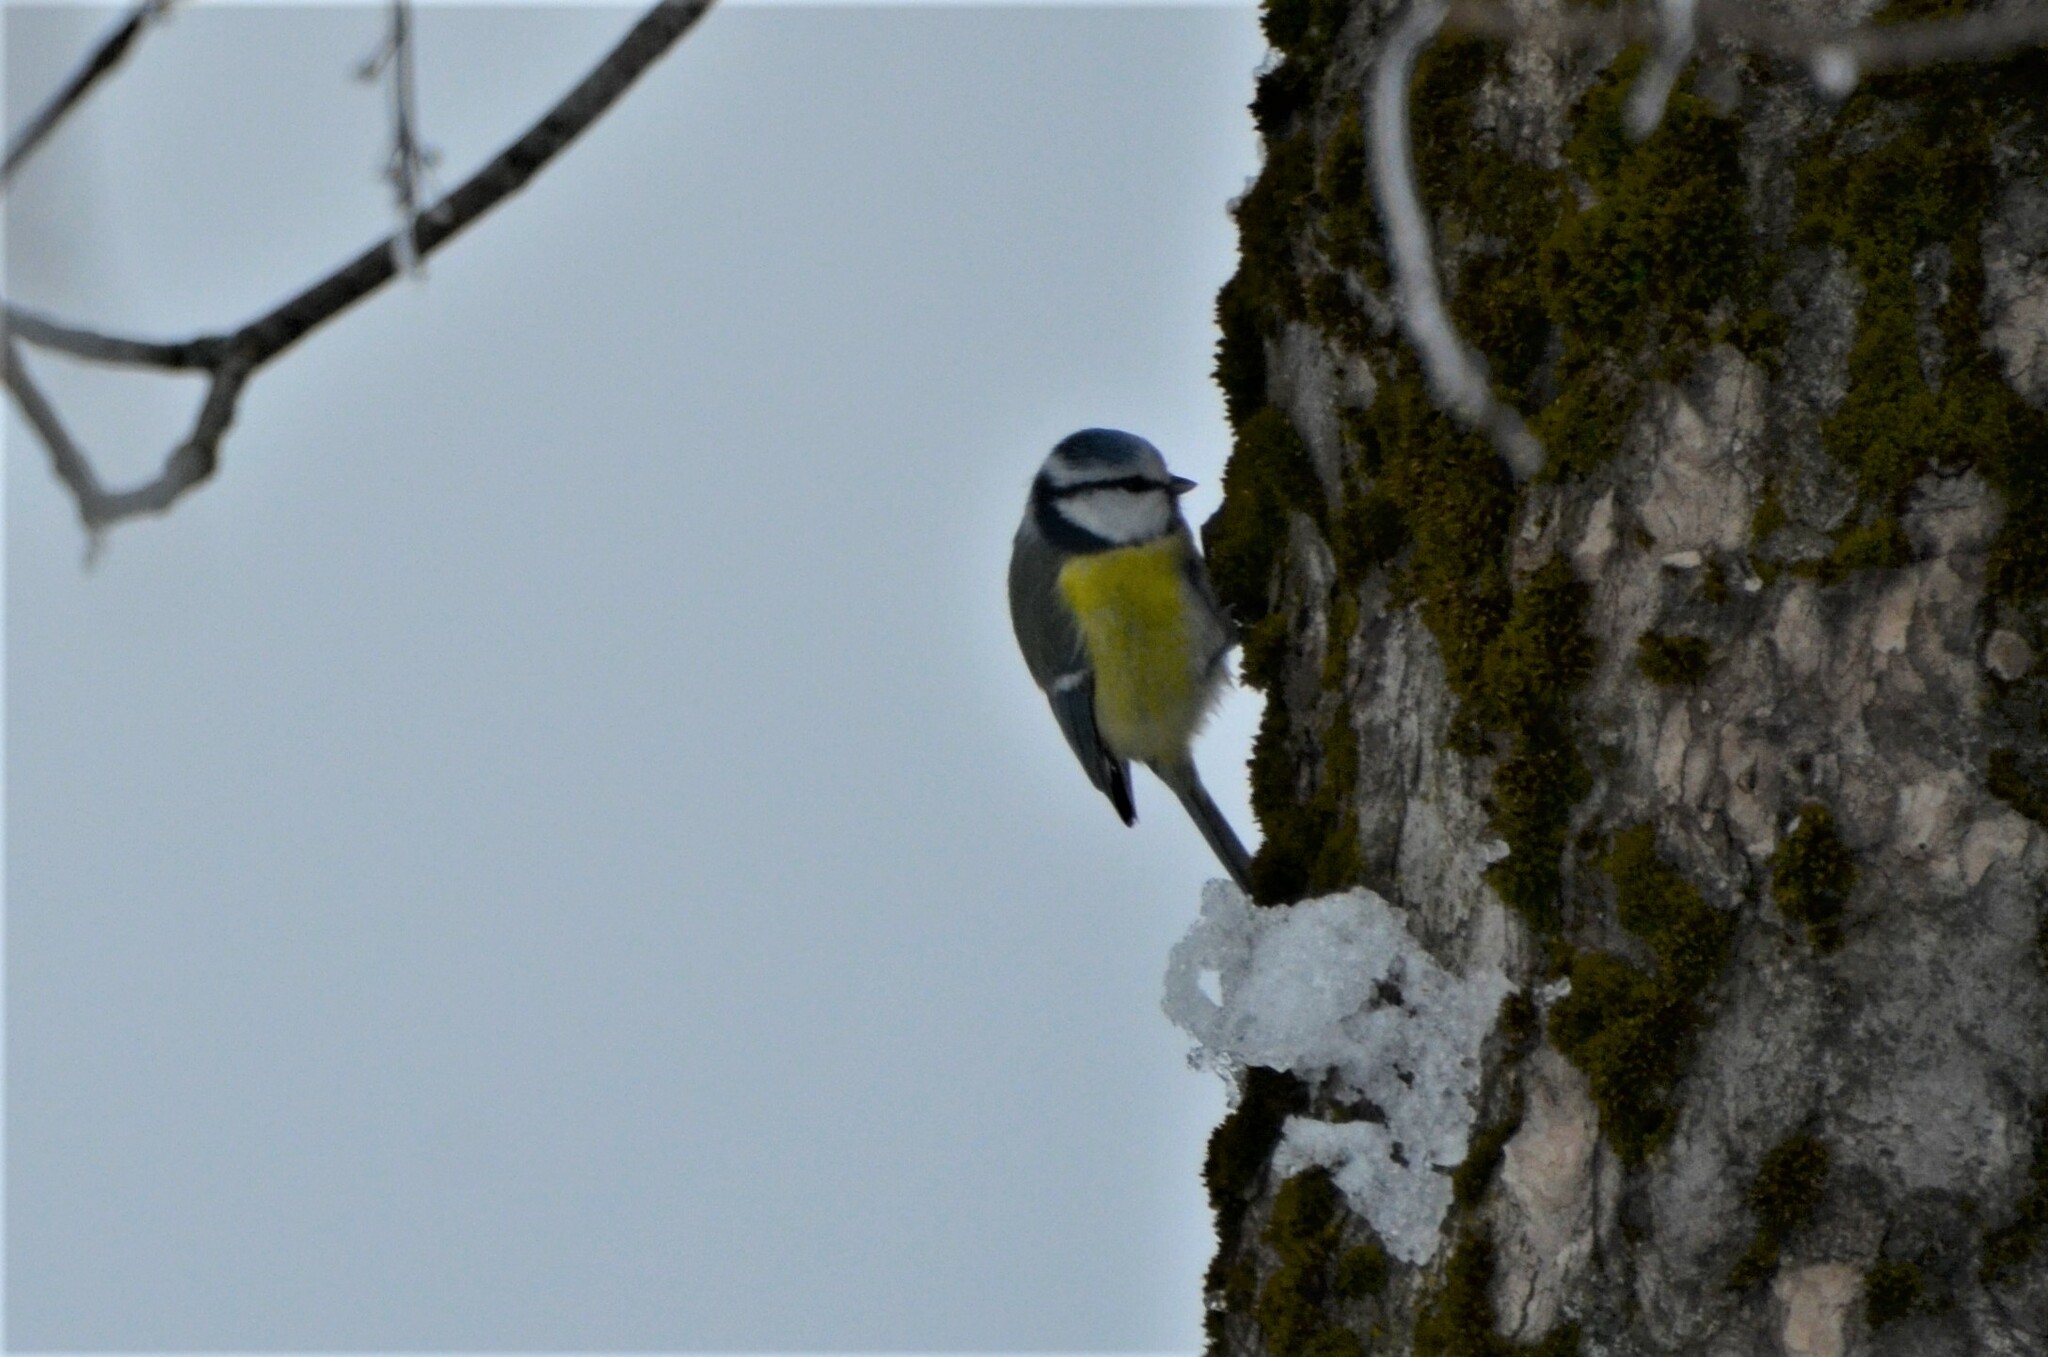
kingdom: Animalia
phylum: Chordata
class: Aves
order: Passeriformes
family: Paridae
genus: Cyanistes
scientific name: Cyanistes caeruleus
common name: Eurasian blue tit
